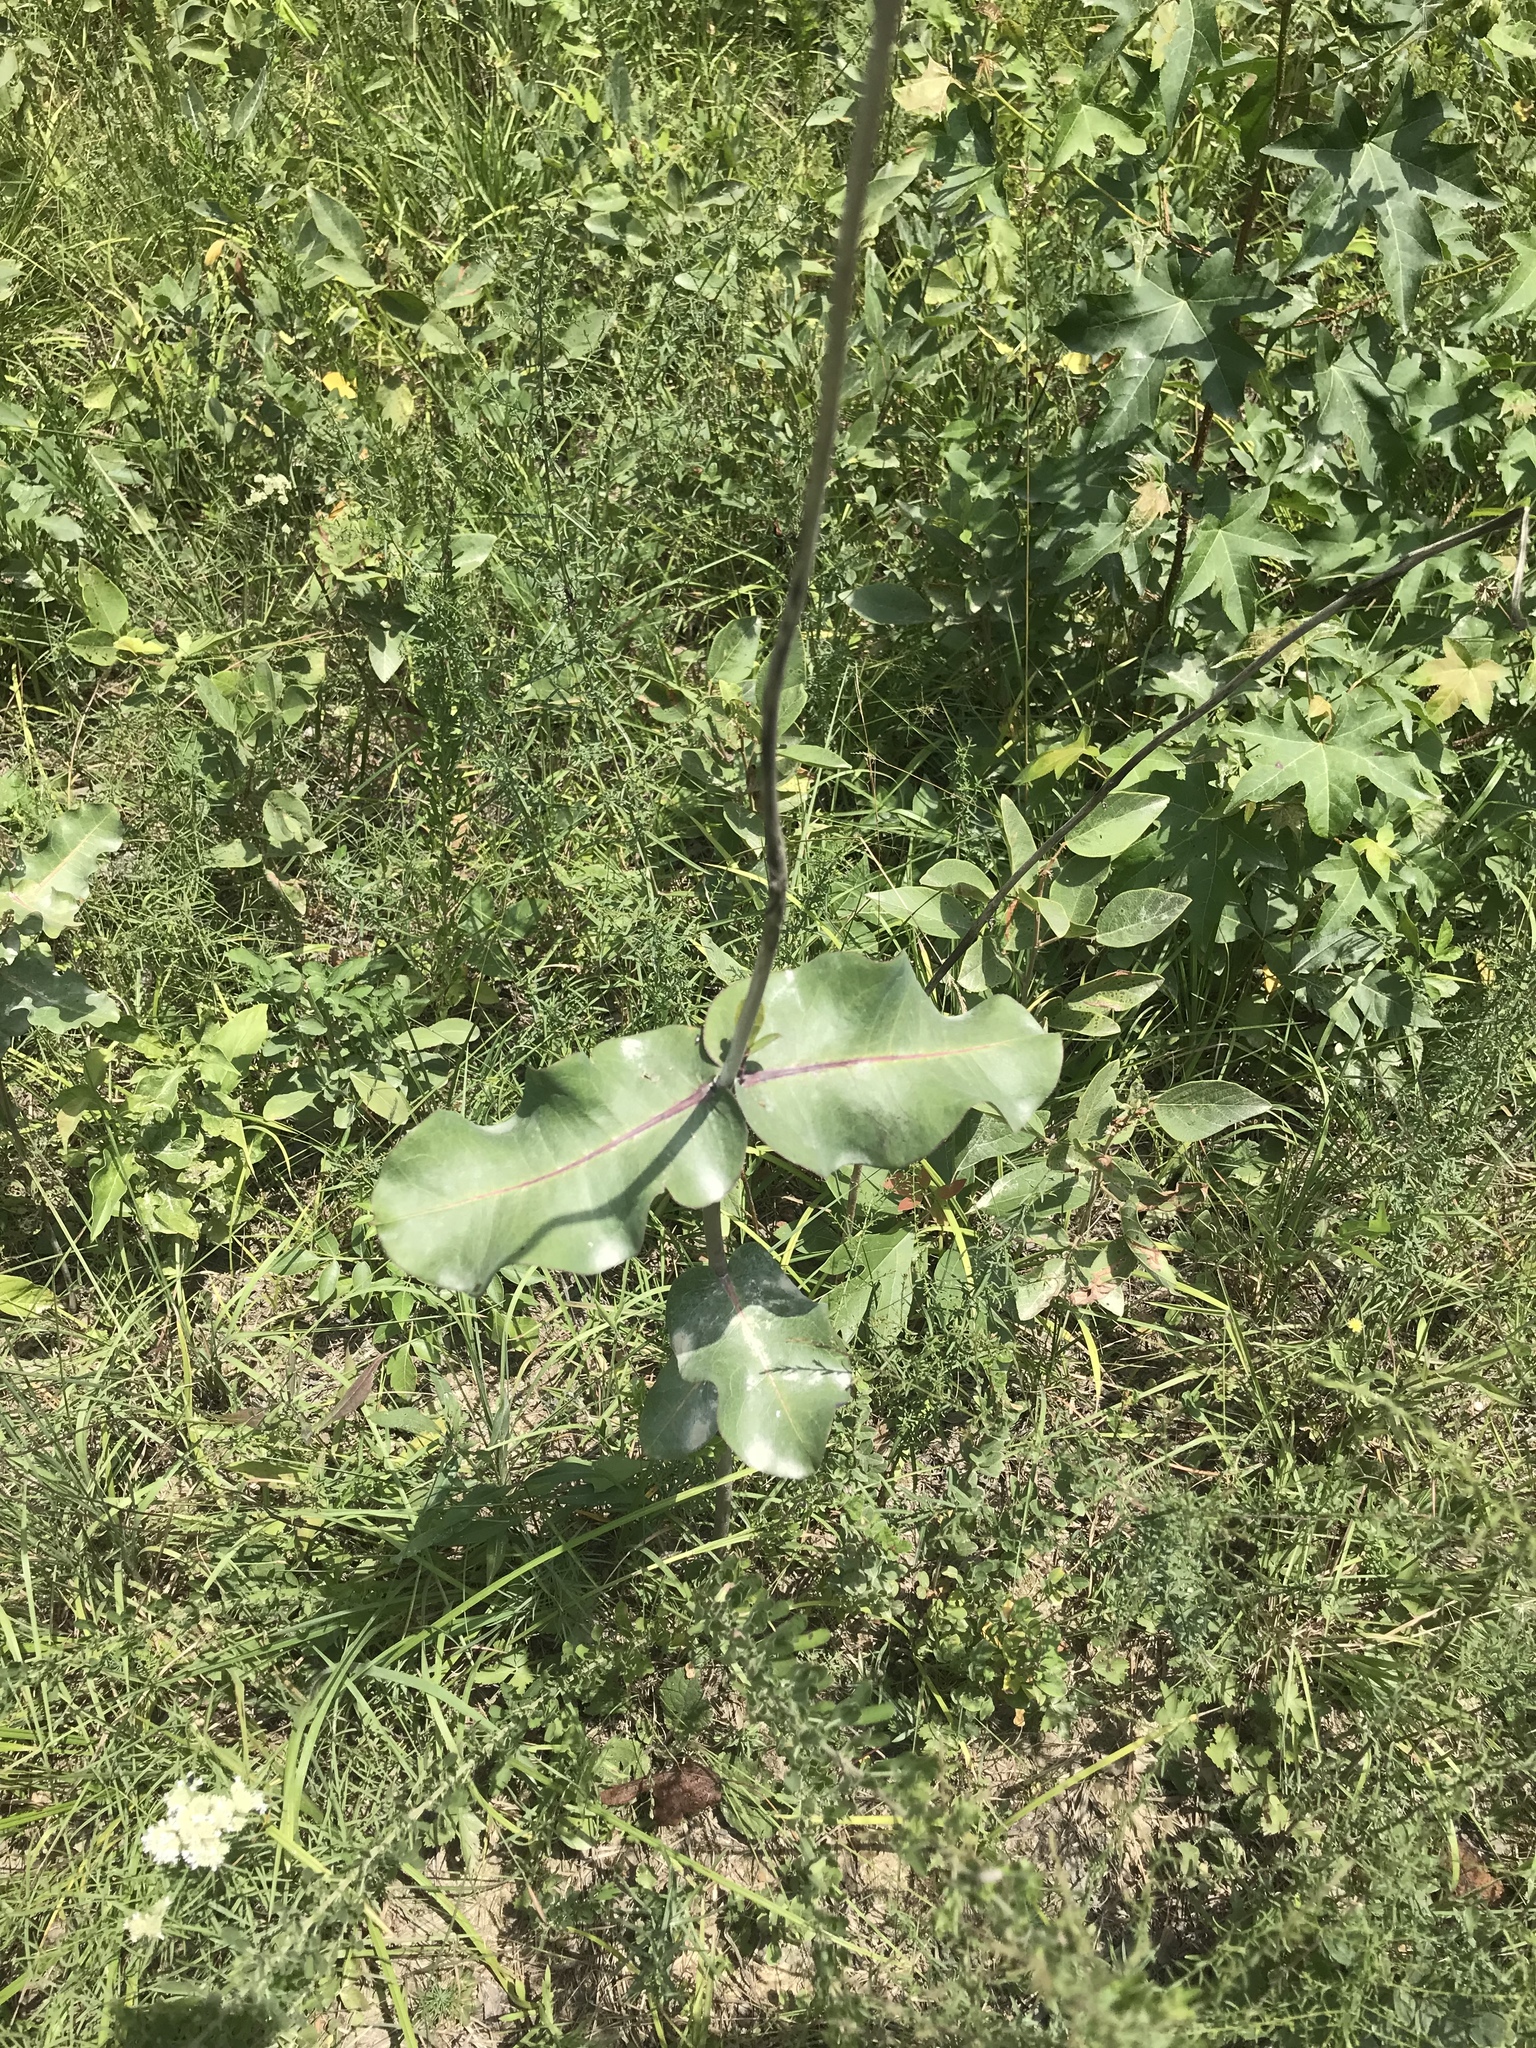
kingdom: Plantae
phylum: Tracheophyta
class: Magnoliopsida
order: Gentianales
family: Apocynaceae
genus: Asclepias
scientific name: Asclepias amplexicaulis
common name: Blunt-leaf milkweed
